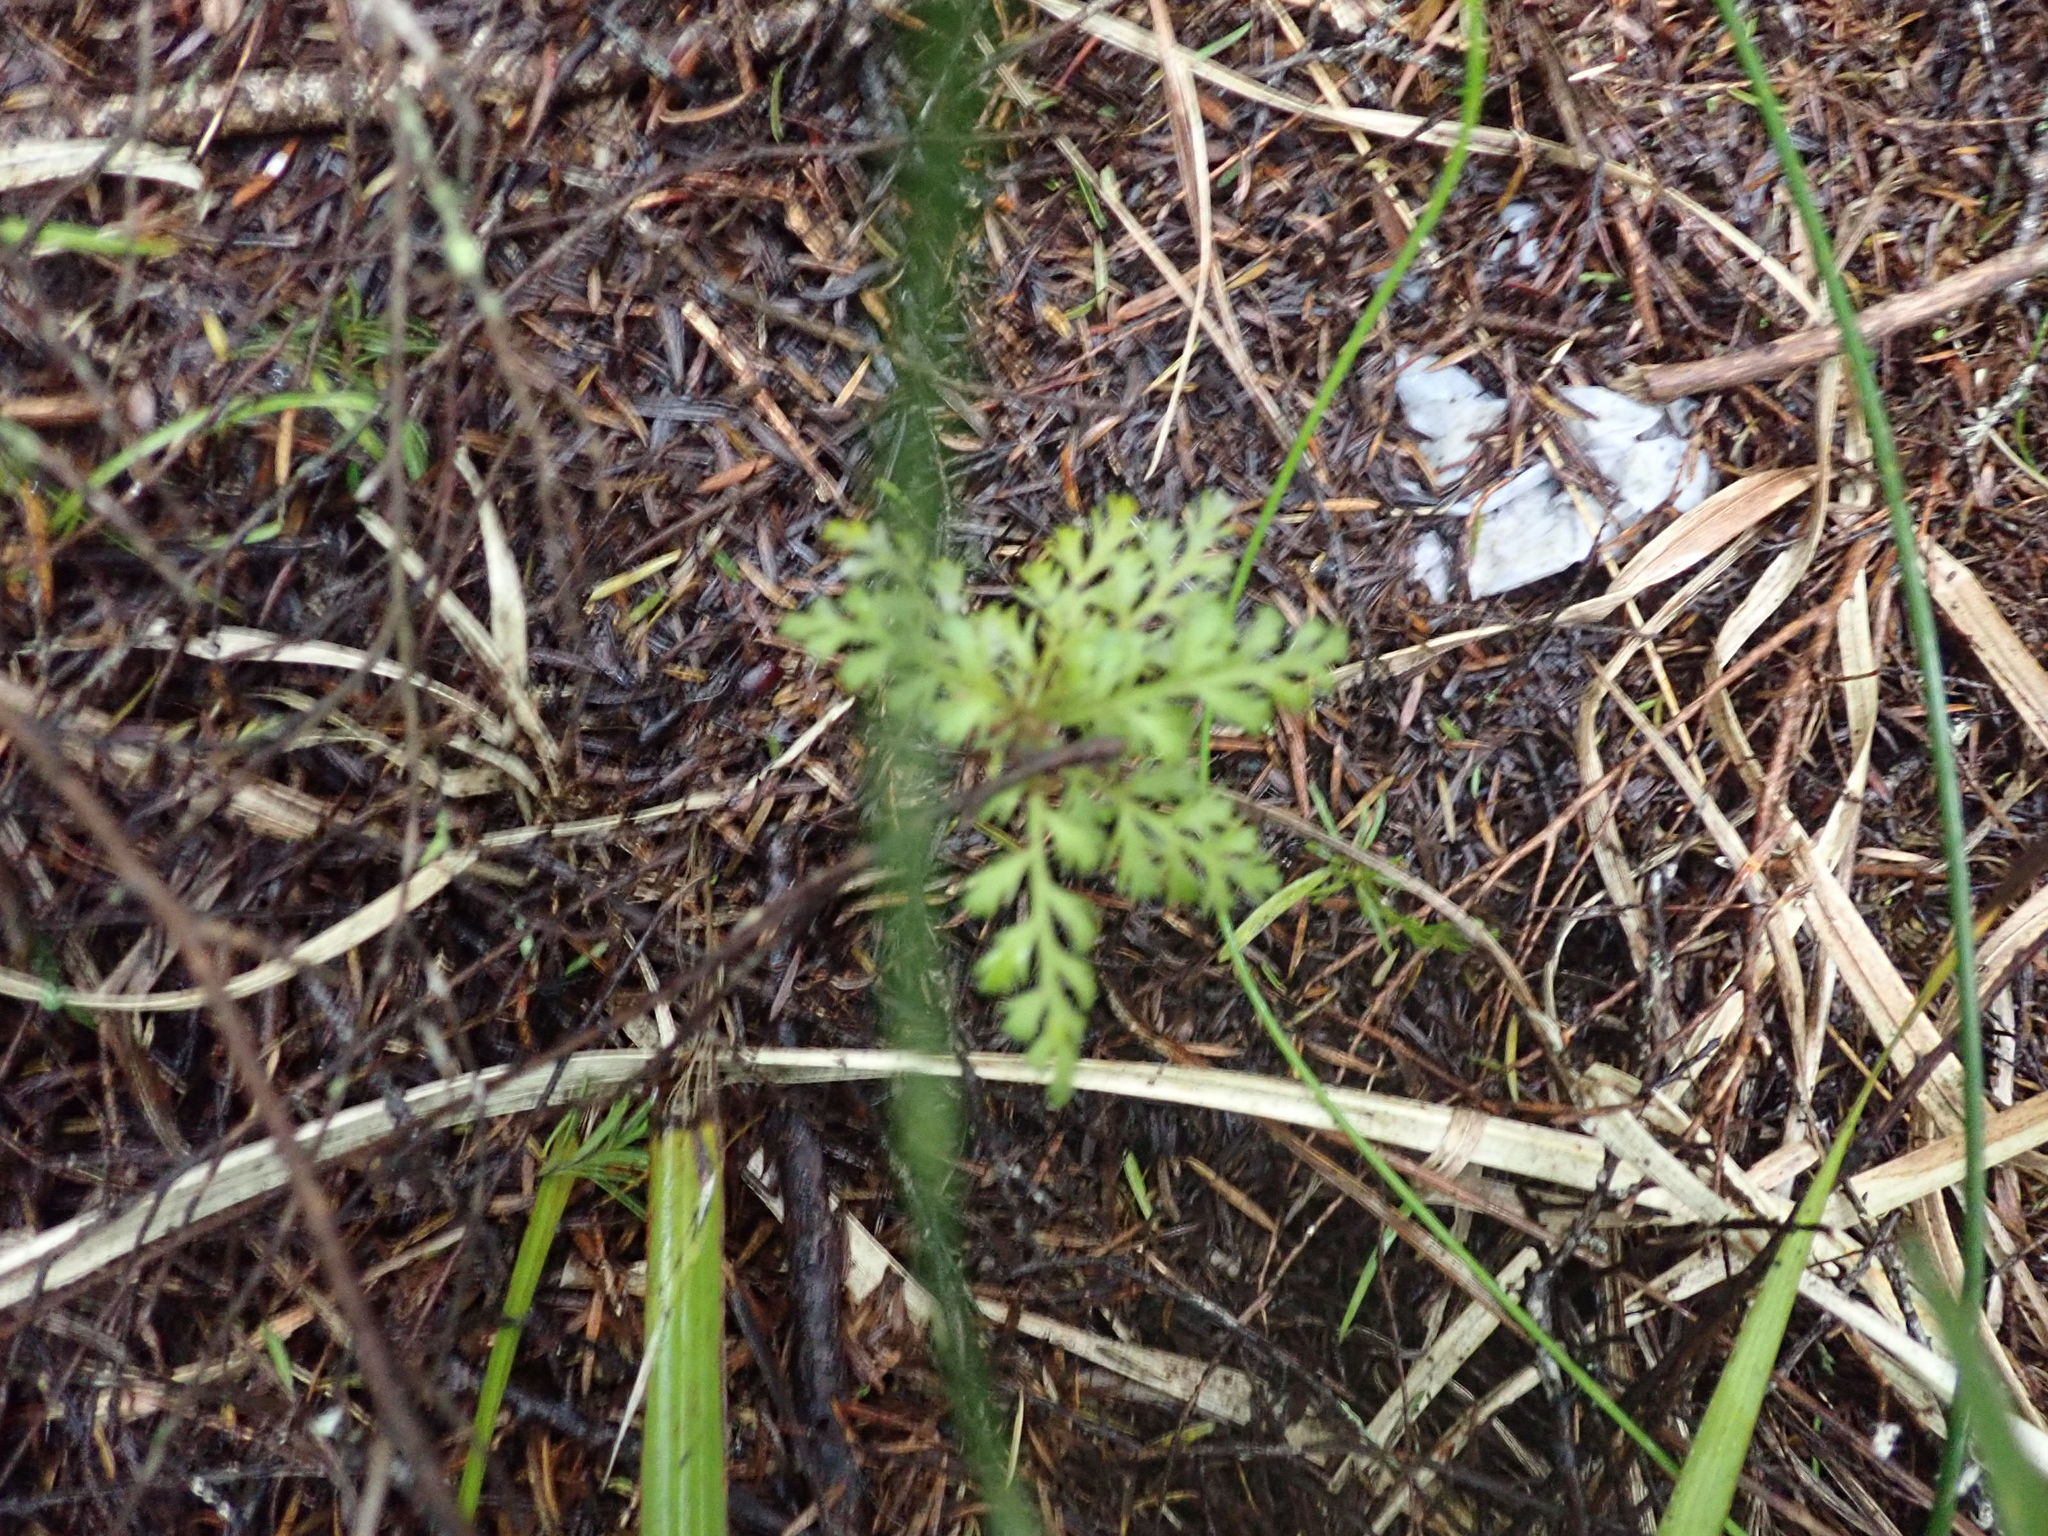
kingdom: Plantae
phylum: Tracheophyta
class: Pinopsida
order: Pinales
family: Phyllocladaceae
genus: Phyllocladus
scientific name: Phyllocladus trichomanoides
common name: Celery pine
